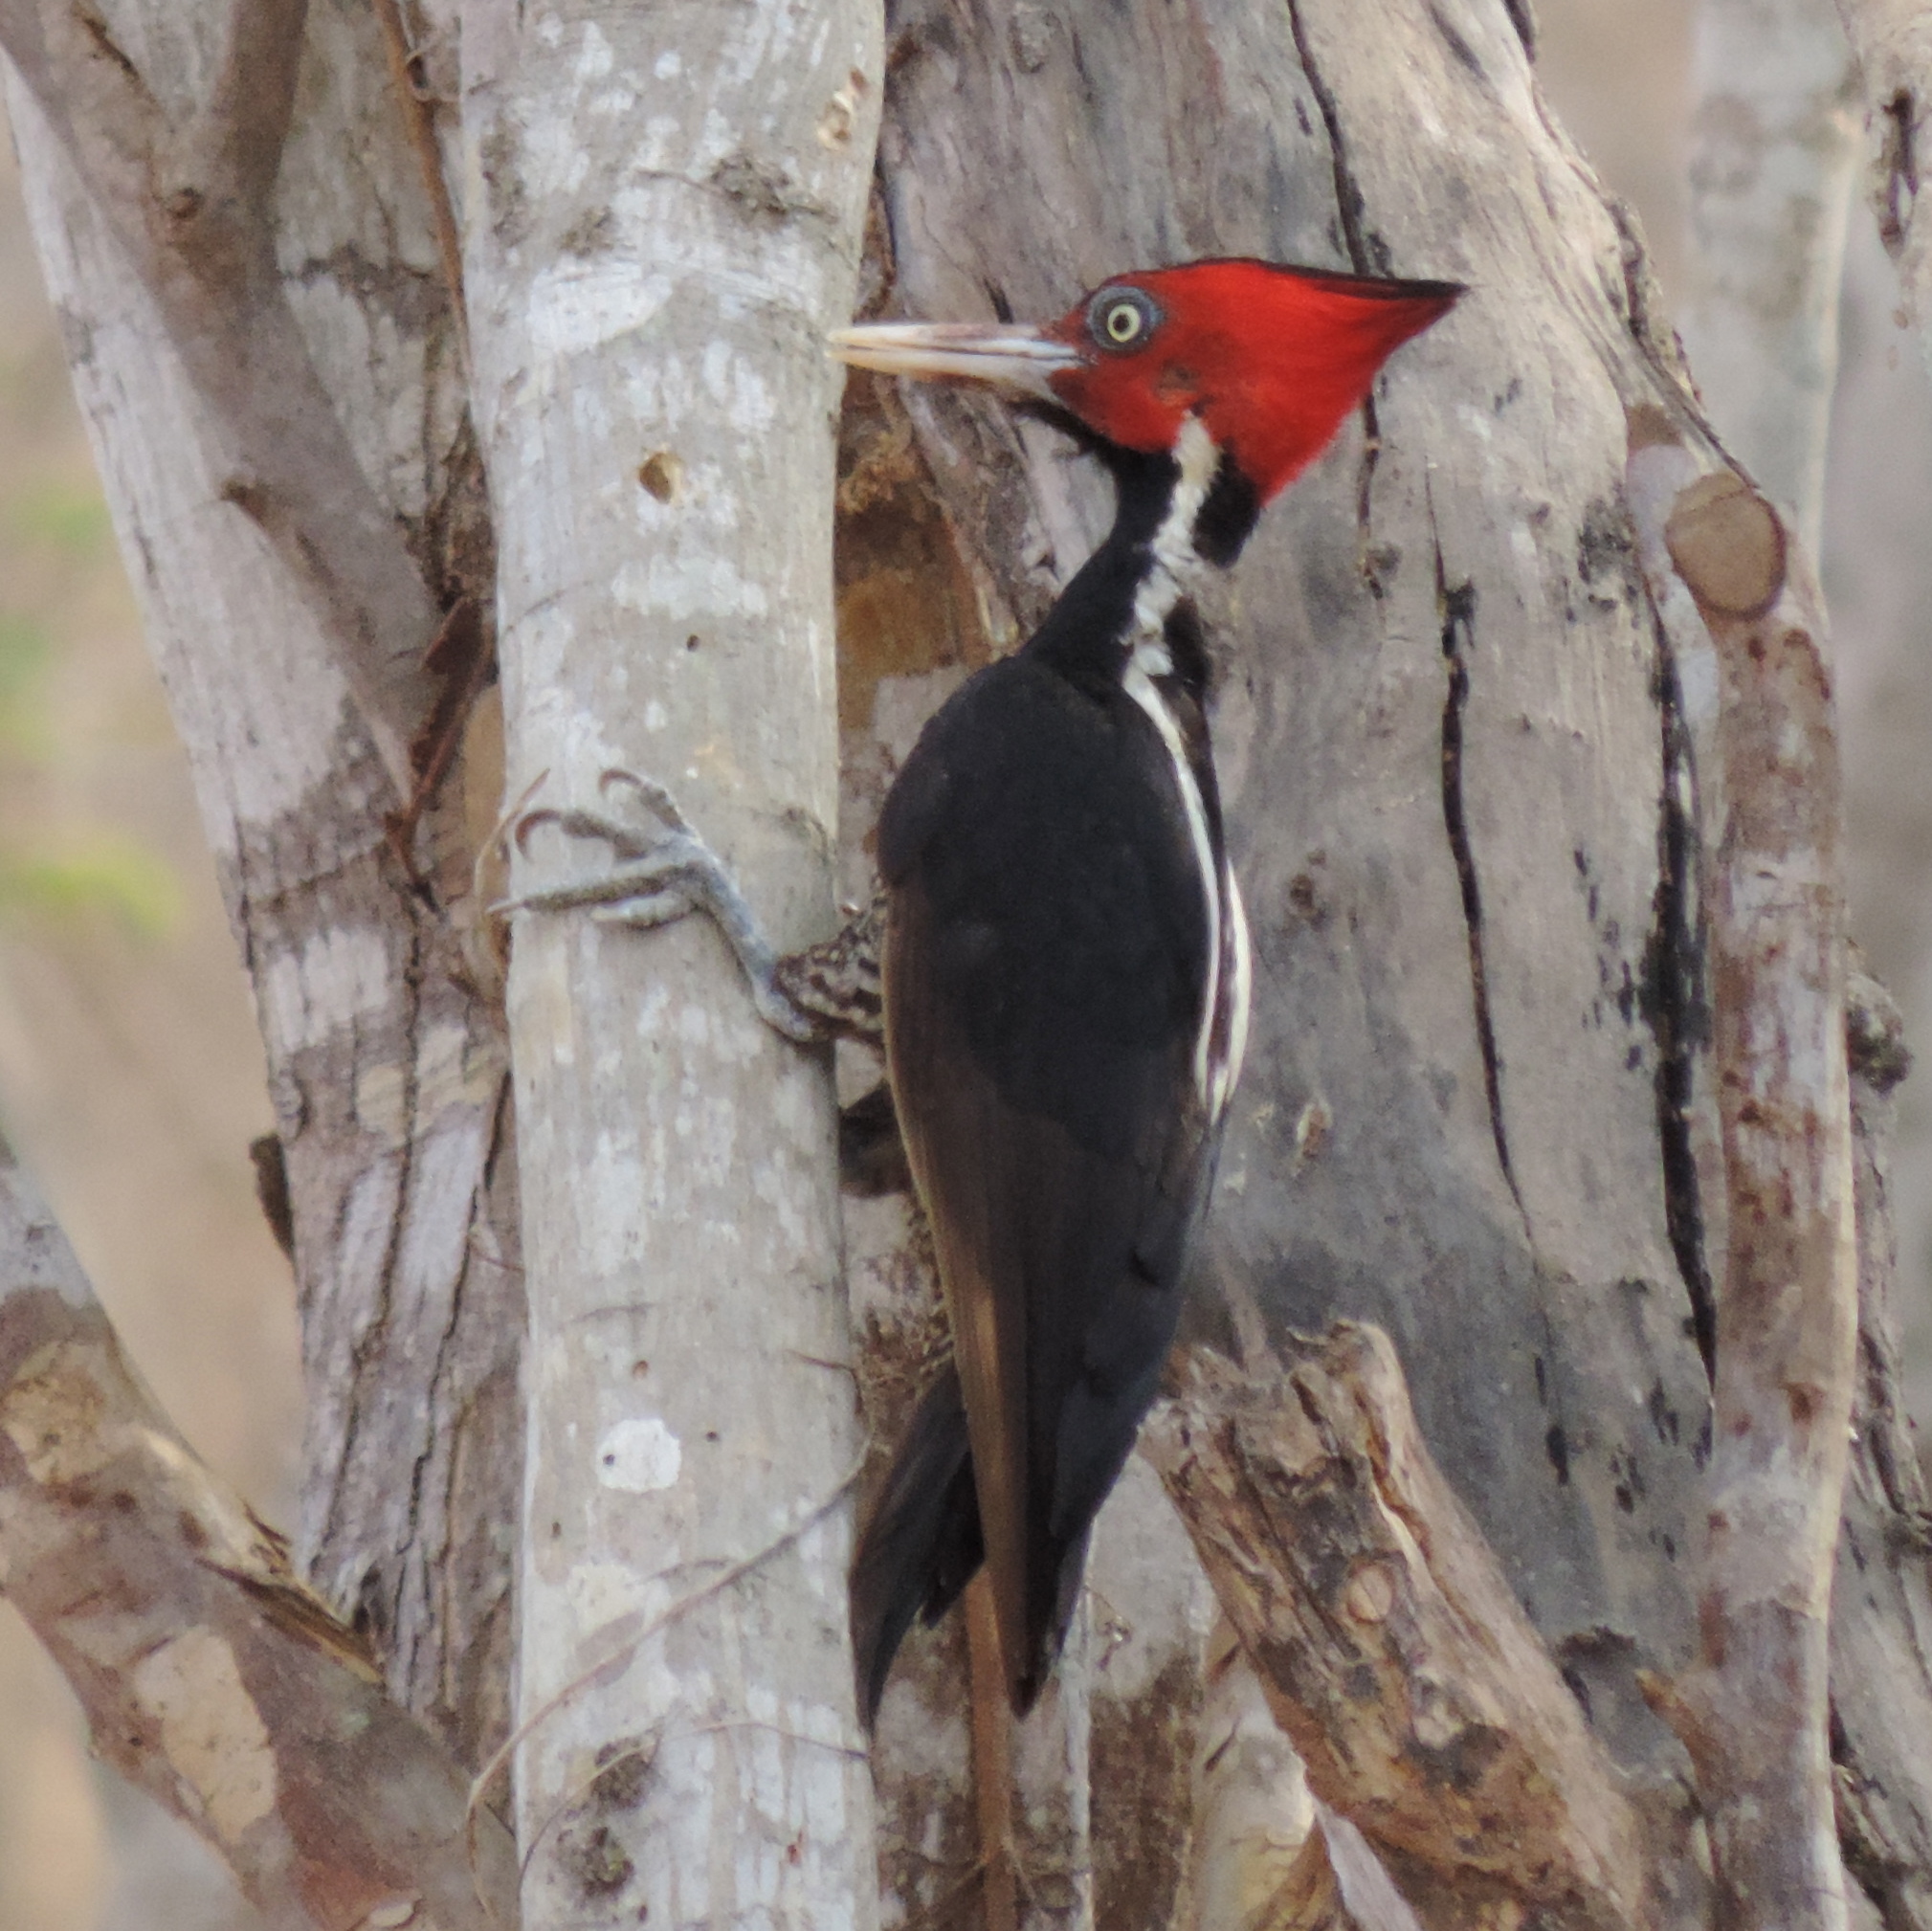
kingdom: Animalia
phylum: Chordata
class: Aves
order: Piciformes
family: Picidae
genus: Campephilus
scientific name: Campephilus guatemalensis
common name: Pale-billed woodpecker
